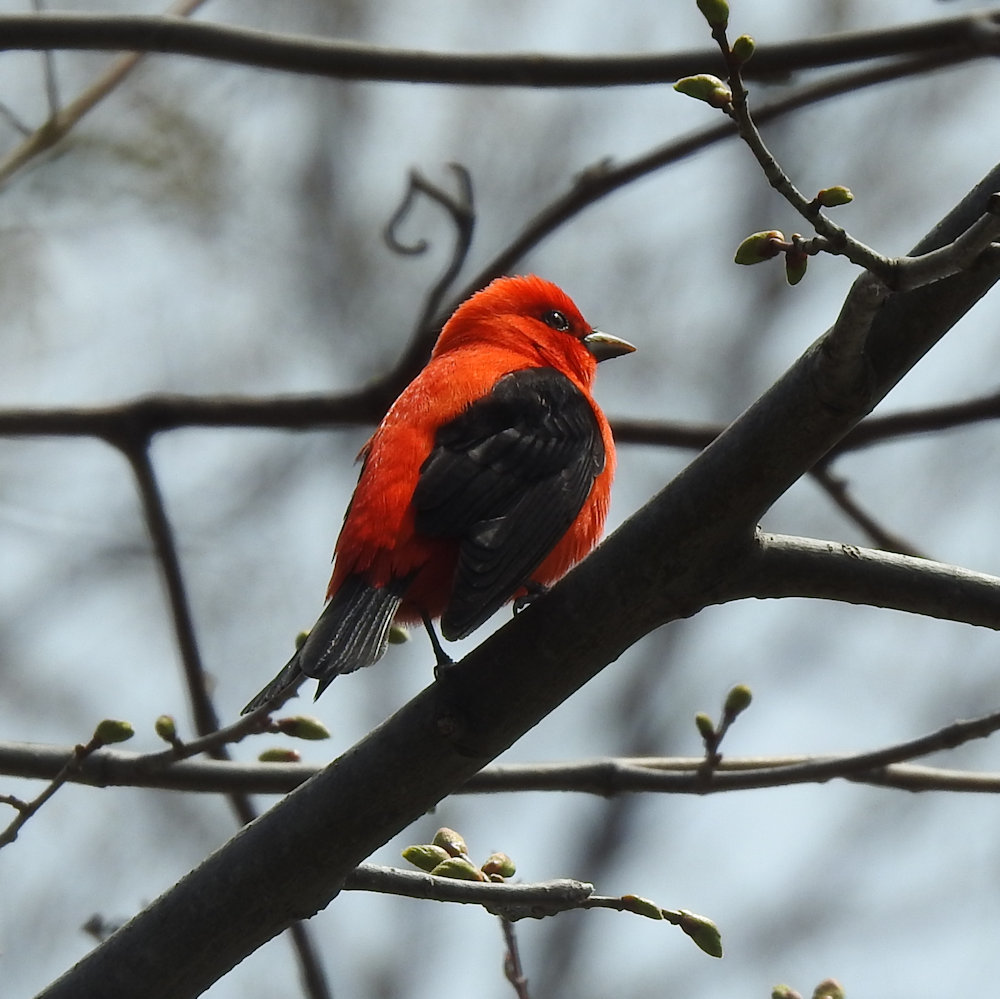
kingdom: Animalia
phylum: Chordata
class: Aves
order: Passeriformes
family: Cardinalidae
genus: Piranga
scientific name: Piranga olivacea
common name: Scarlet tanager
